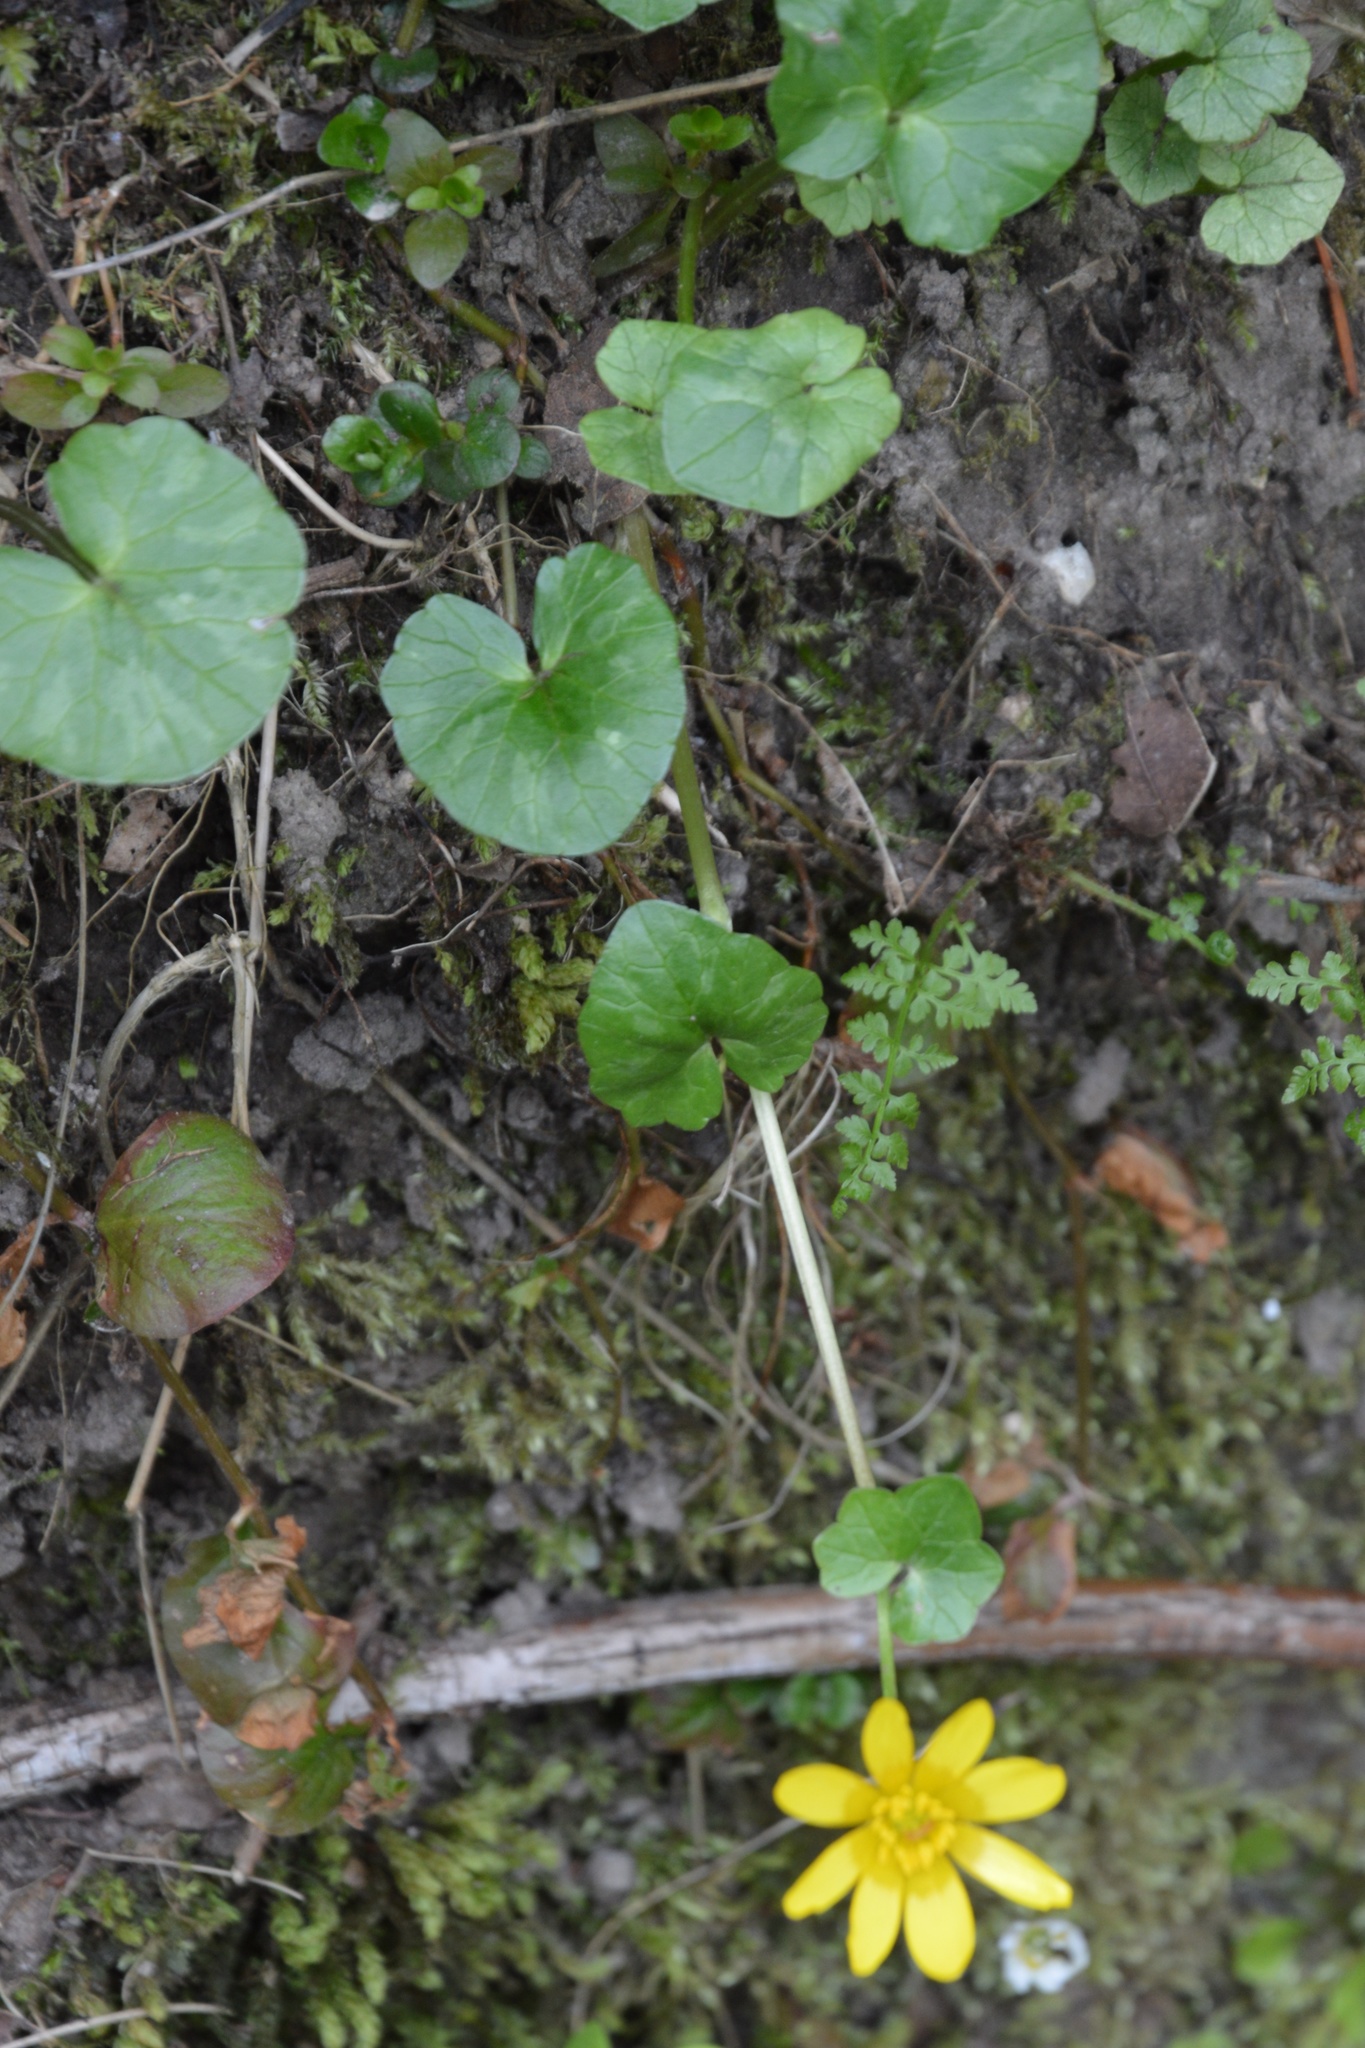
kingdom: Plantae
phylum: Tracheophyta
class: Magnoliopsida
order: Ranunculales
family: Ranunculaceae
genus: Ficaria
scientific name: Ficaria verna
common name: Lesser celandine
